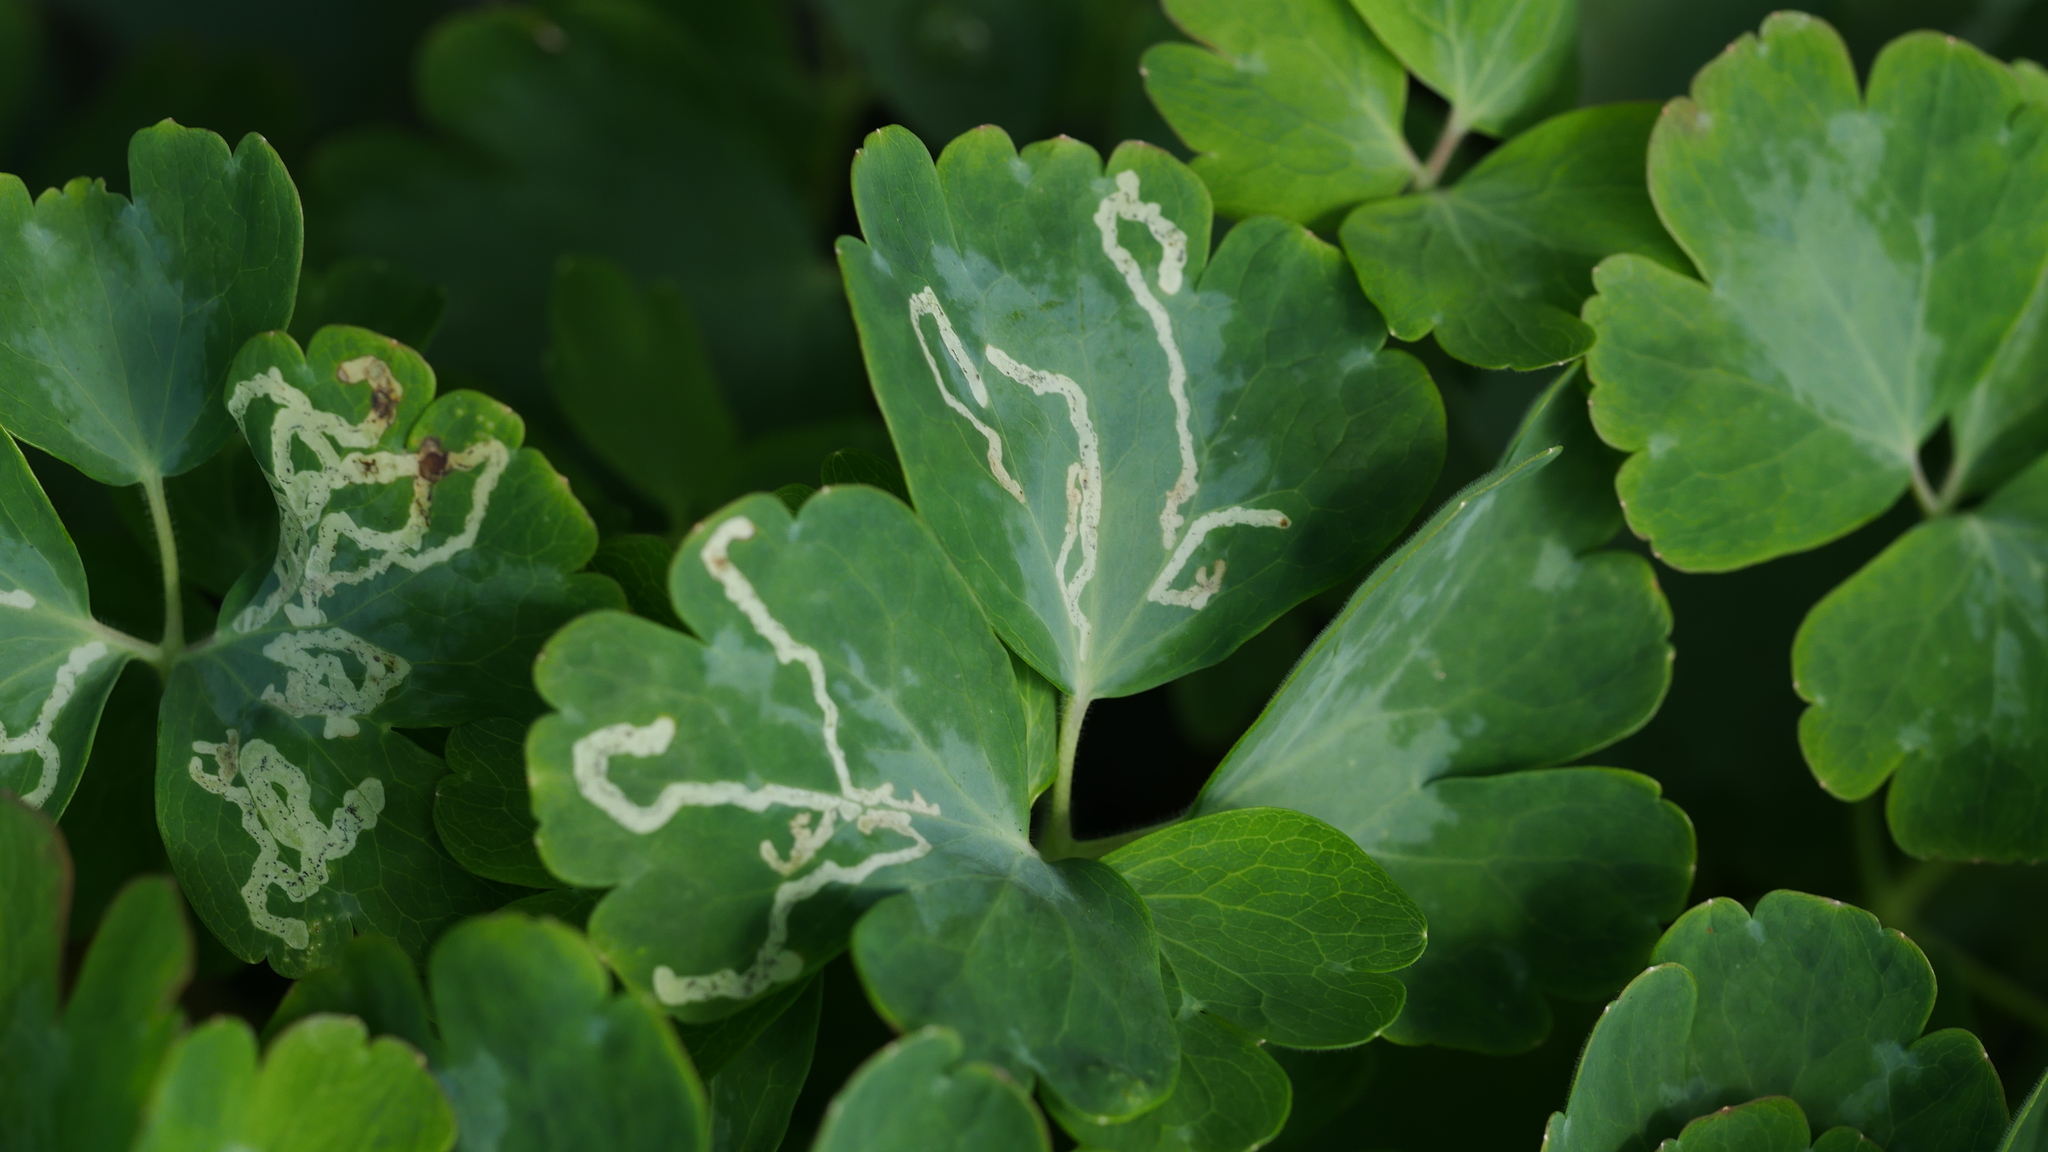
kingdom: Animalia
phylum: Arthropoda
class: Insecta
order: Diptera
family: Agromyzidae
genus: Phytomyza
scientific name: Phytomyza
